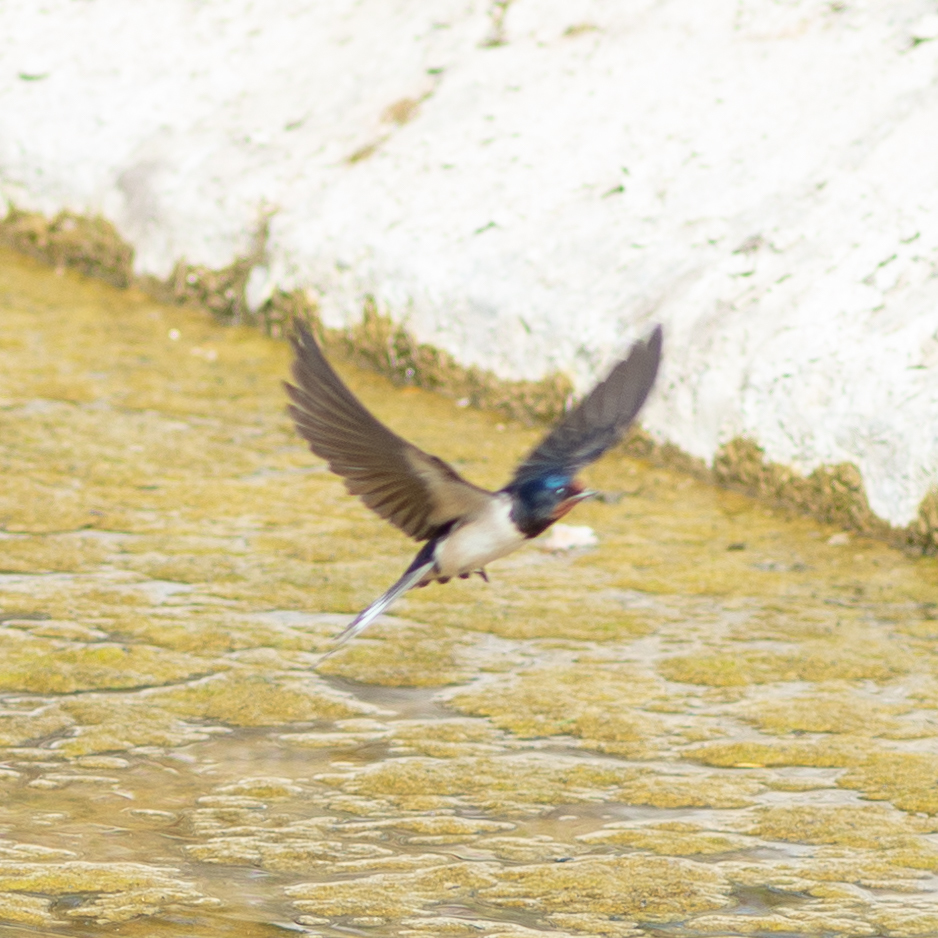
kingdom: Animalia
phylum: Chordata
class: Aves
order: Passeriformes
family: Hirundinidae
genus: Hirundo
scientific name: Hirundo rustica
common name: Barn swallow
